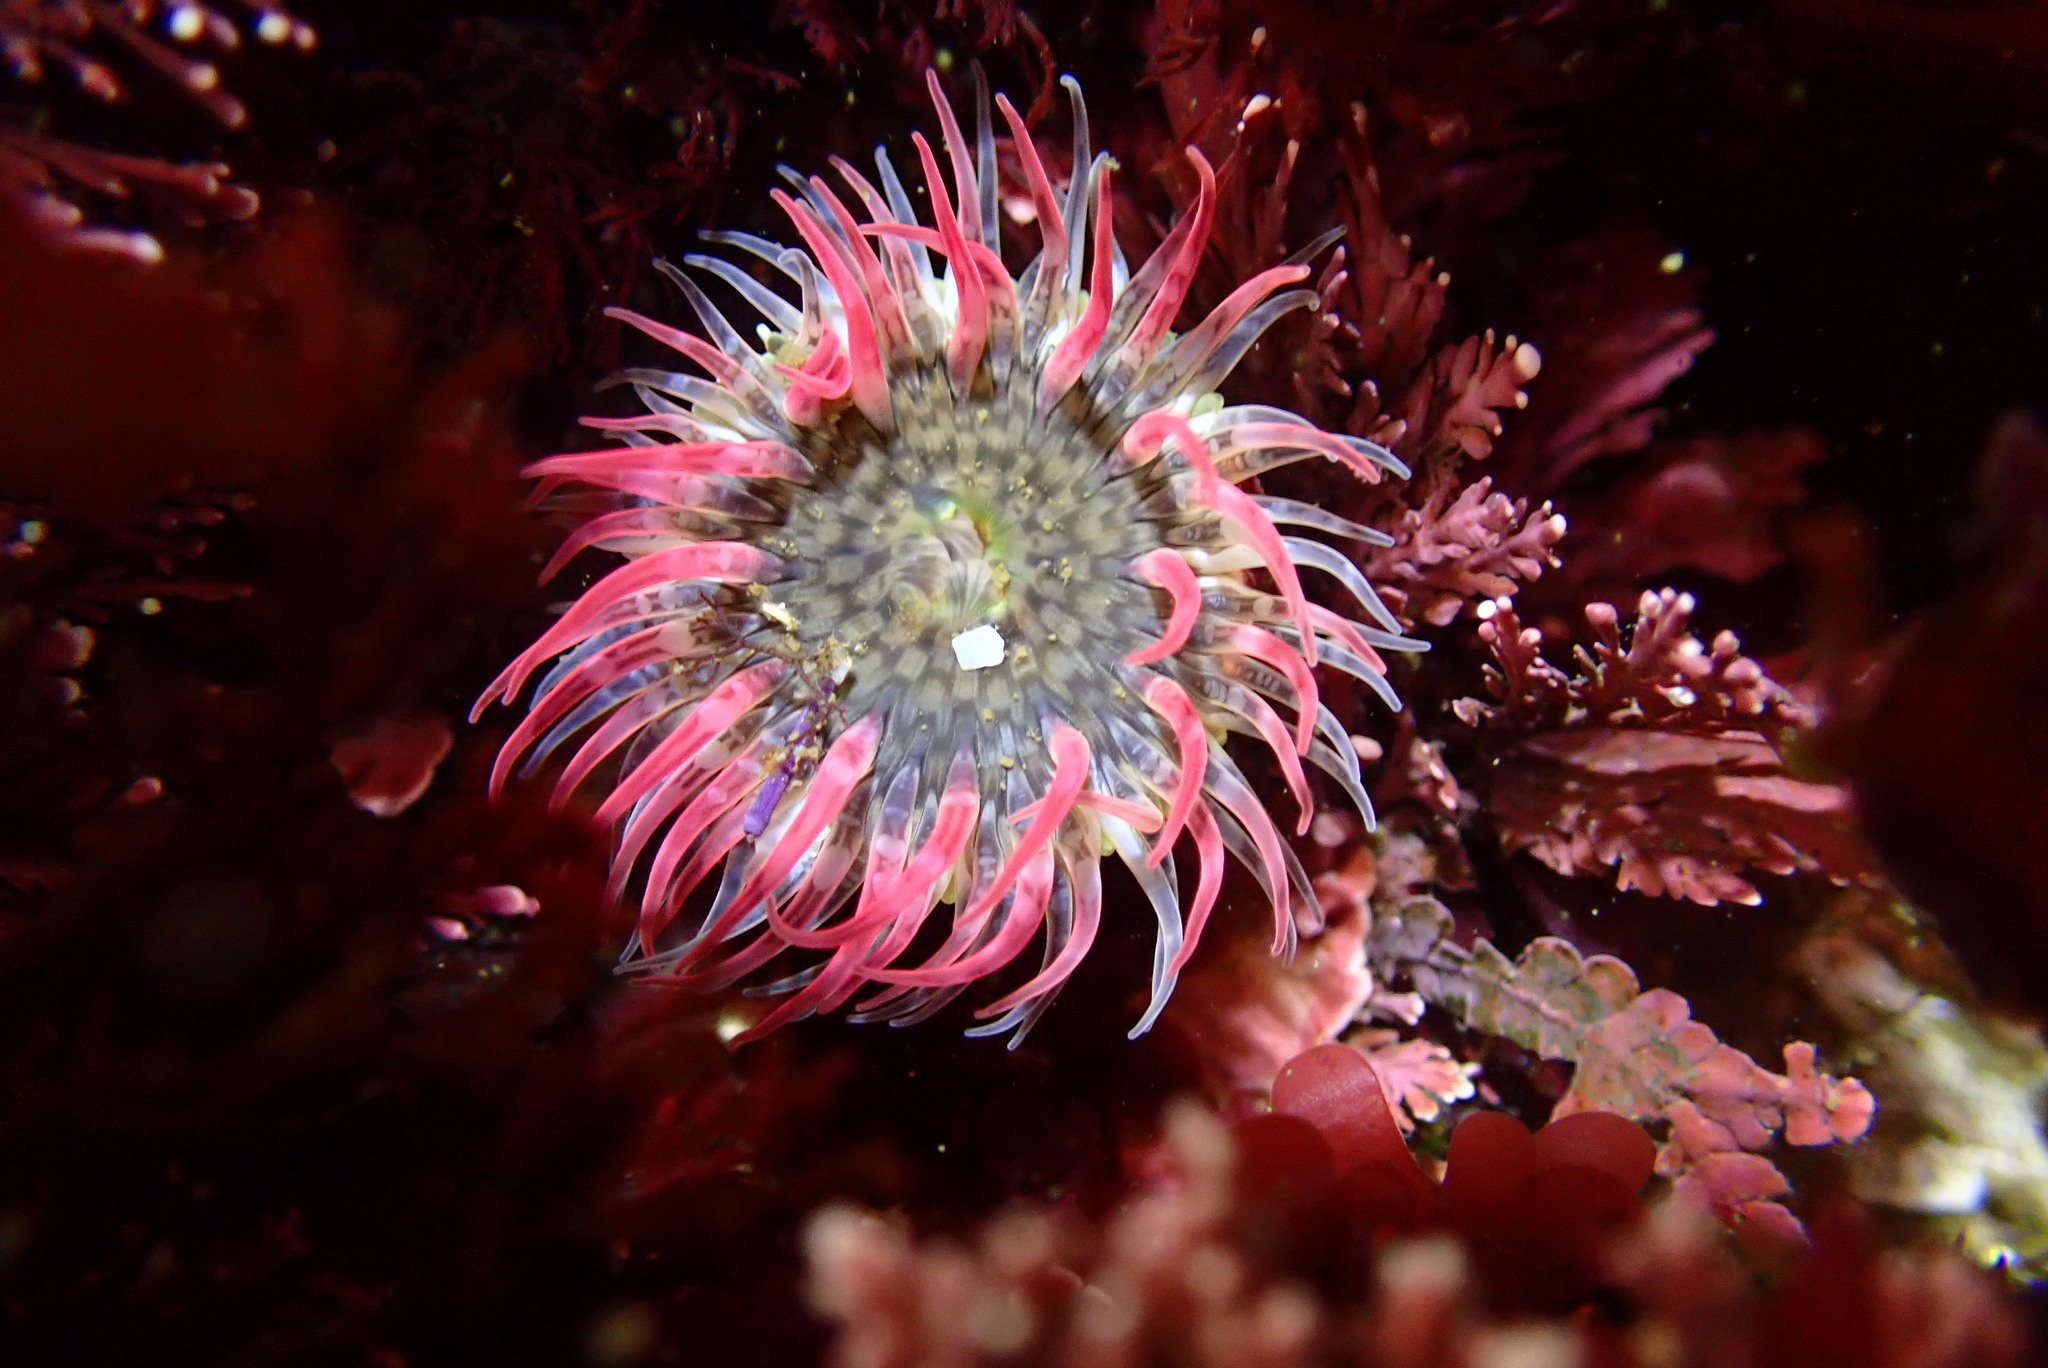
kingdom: Animalia
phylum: Cnidaria
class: Anthozoa
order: Actiniaria
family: Actiniidae
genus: Anthopleura
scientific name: Anthopleura artemisia
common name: Buried sea anemone
